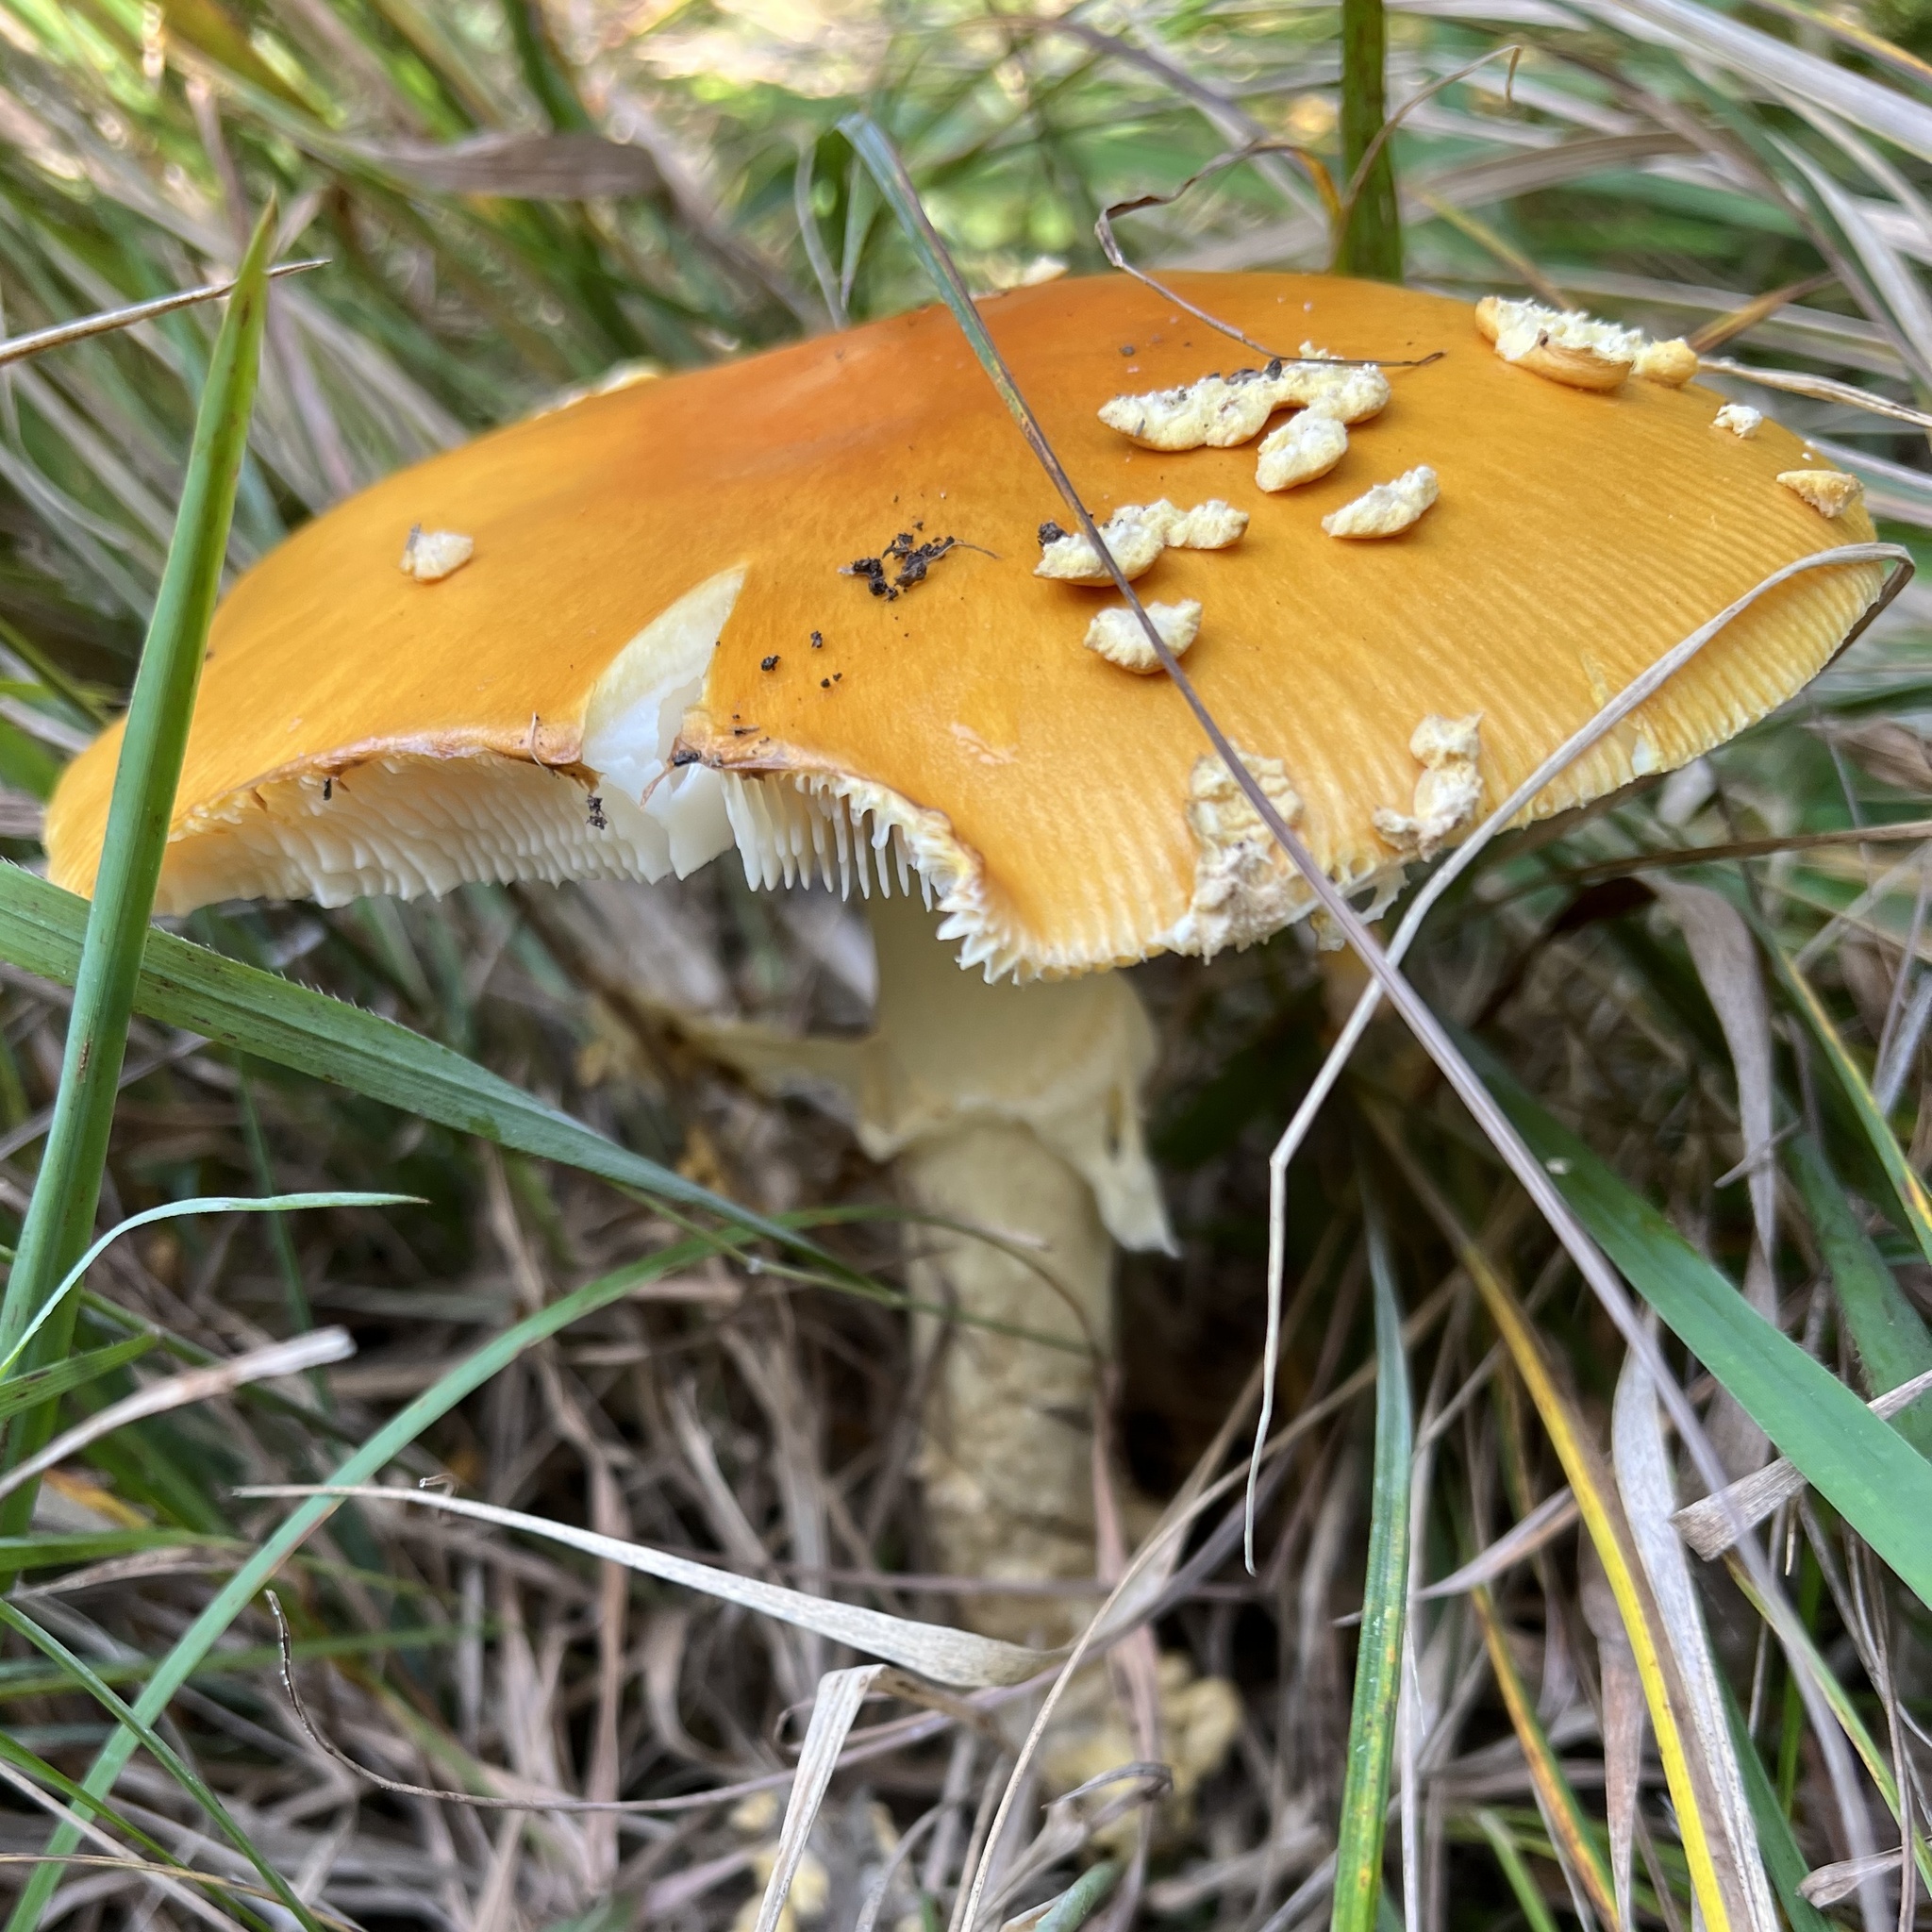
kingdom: Fungi
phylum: Basidiomycota
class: Agaricomycetes
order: Agaricales
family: Amanitaceae
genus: Amanita
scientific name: Amanita muscaria
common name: Fly agaric
